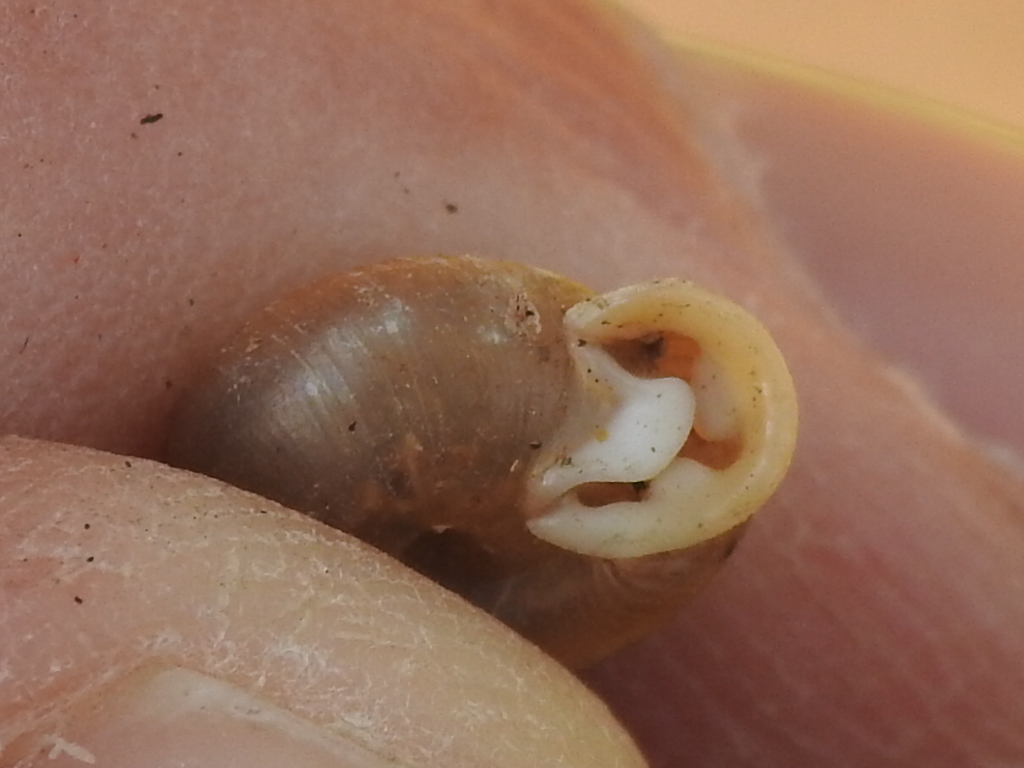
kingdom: Animalia
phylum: Mollusca
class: Gastropoda
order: Stylommatophora
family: Polygyridae
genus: Linisa
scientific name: Linisa texasiana
